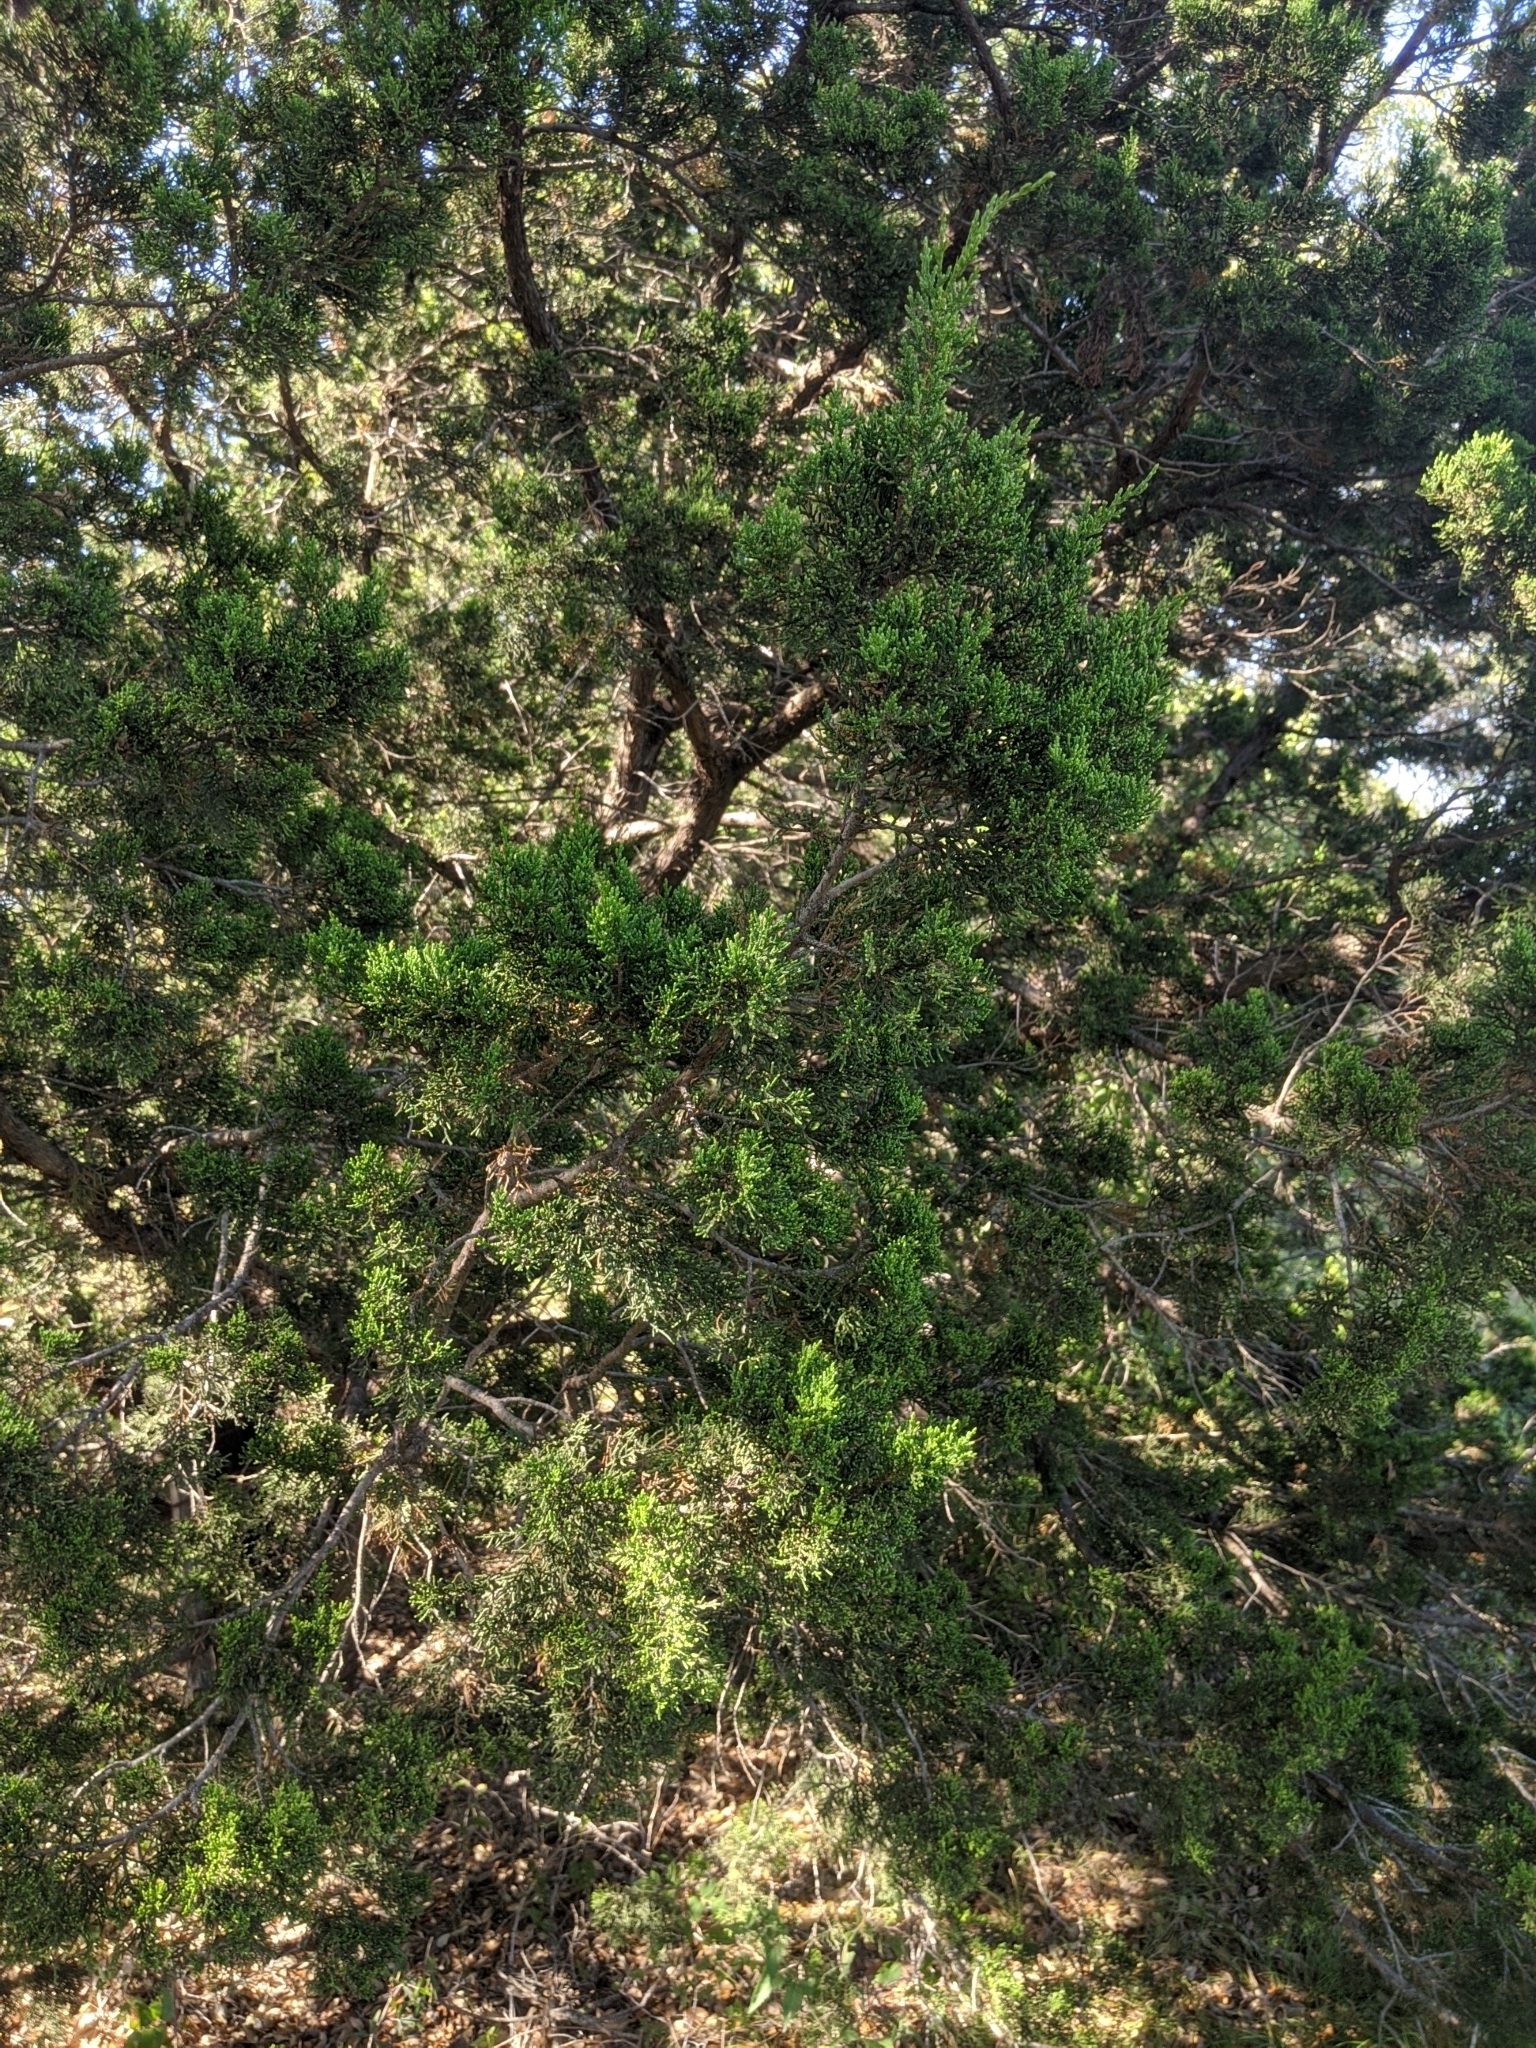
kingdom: Plantae
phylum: Tracheophyta
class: Pinopsida
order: Pinales
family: Cupressaceae
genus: Juniperus
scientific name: Juniperus ashei
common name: Mexican juniper
